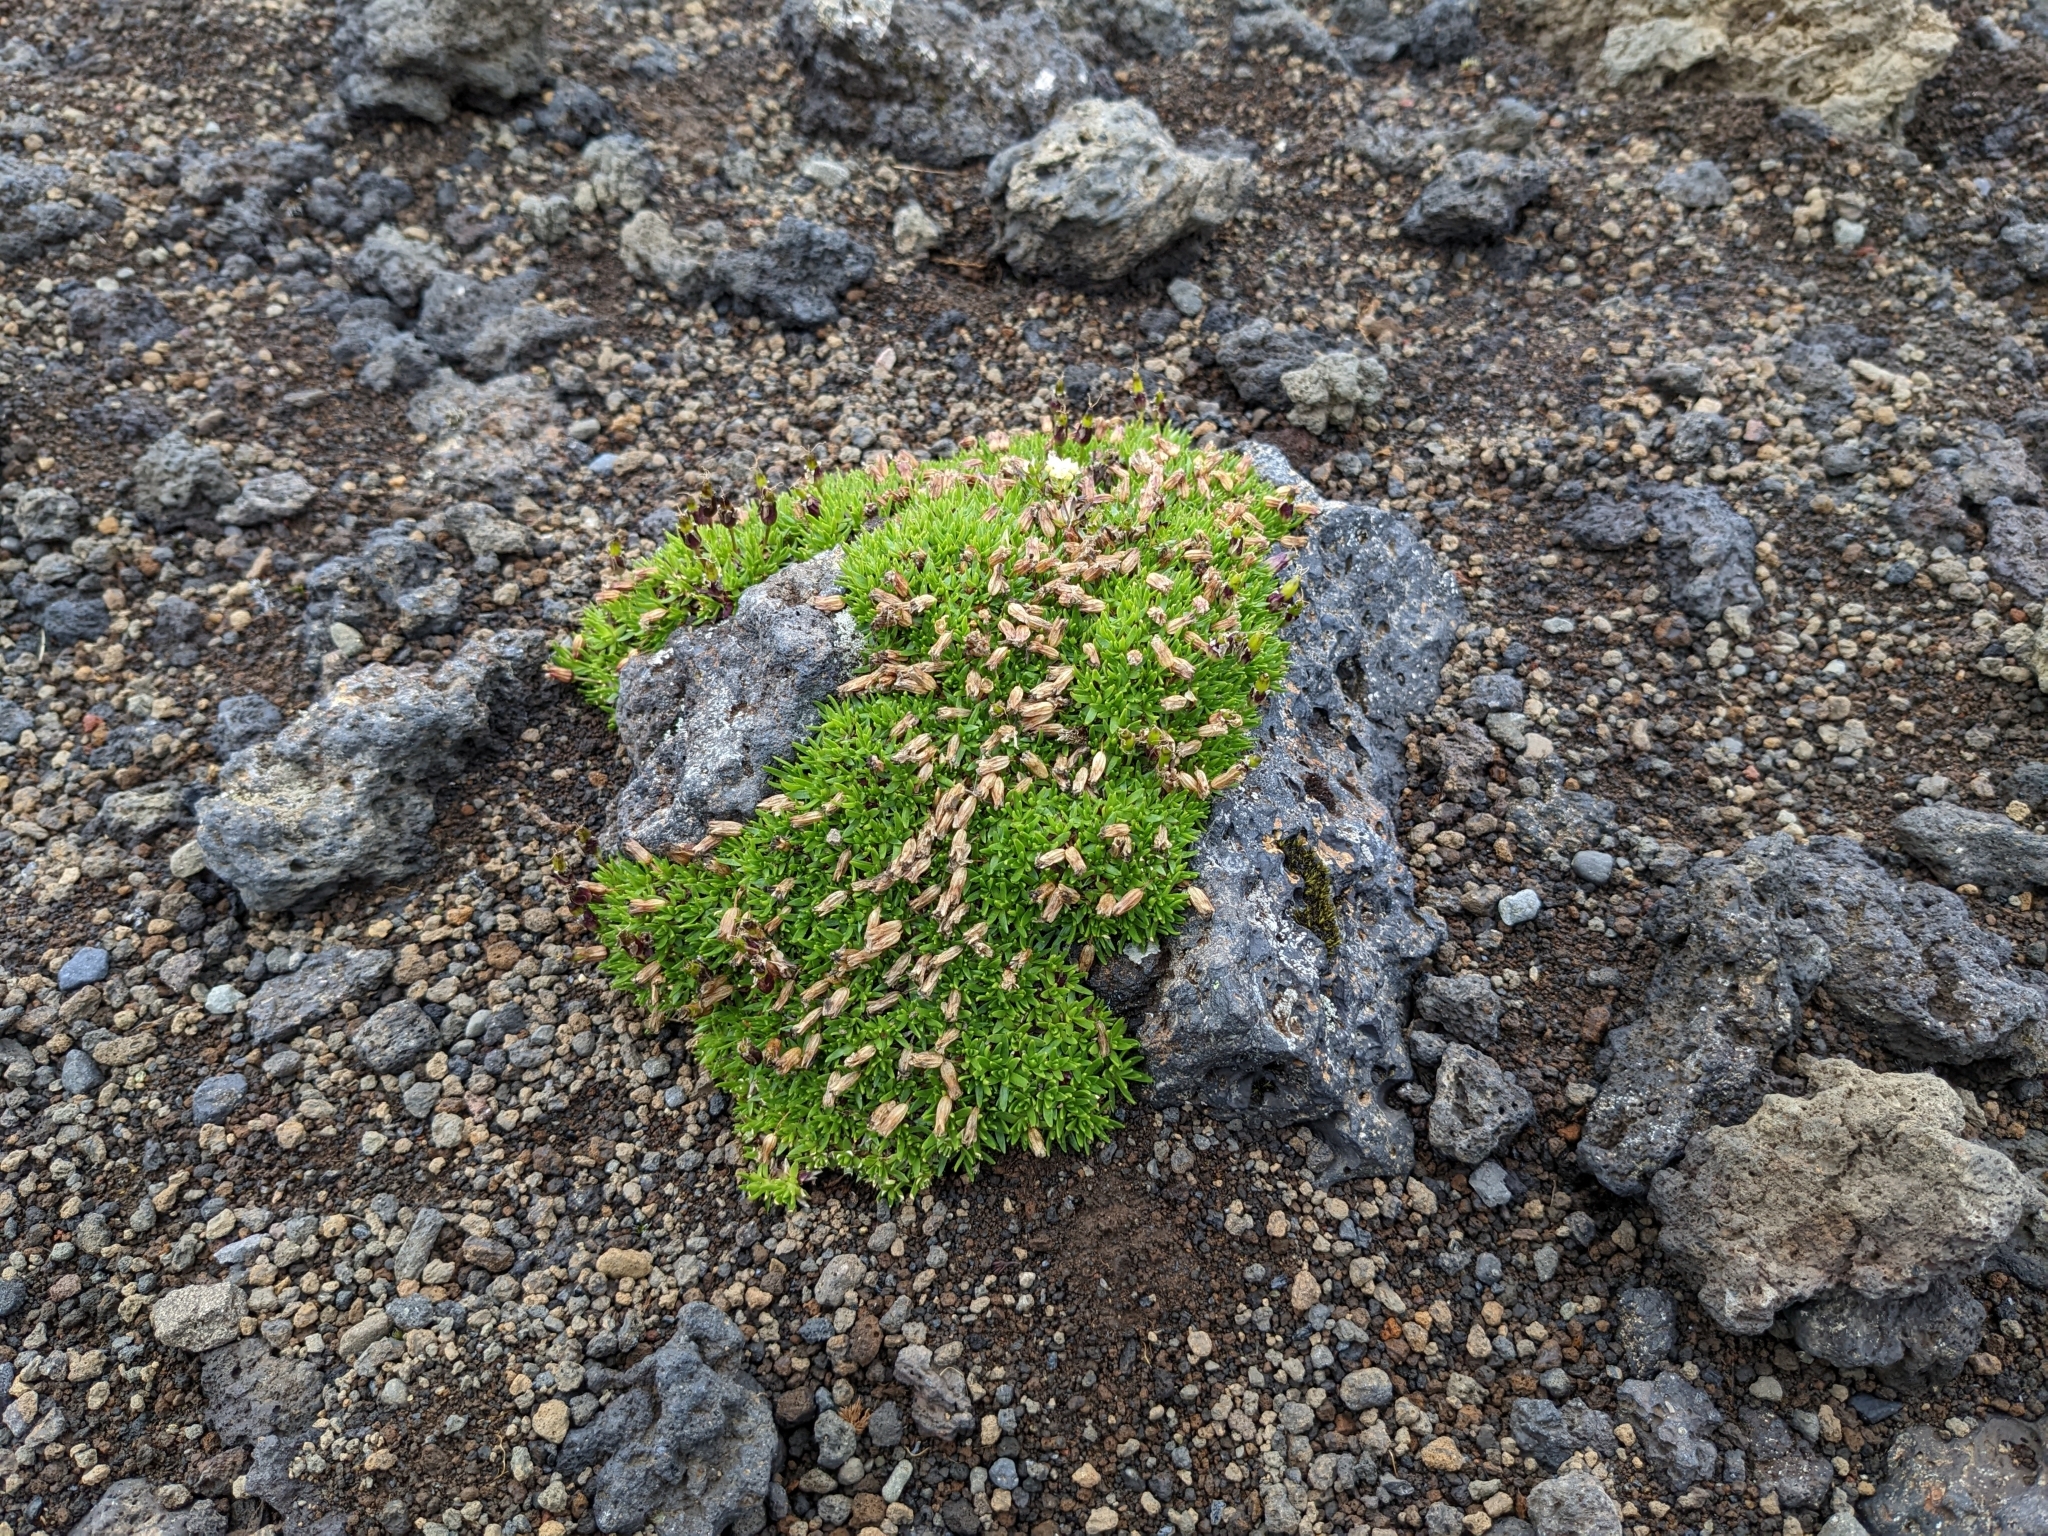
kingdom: Plantae
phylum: Tracheophyta
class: Magnoliopsida
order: Caryophyllales
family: Caryophyllaceae
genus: Silene
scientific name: Silene acaulis
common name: Moss campion
